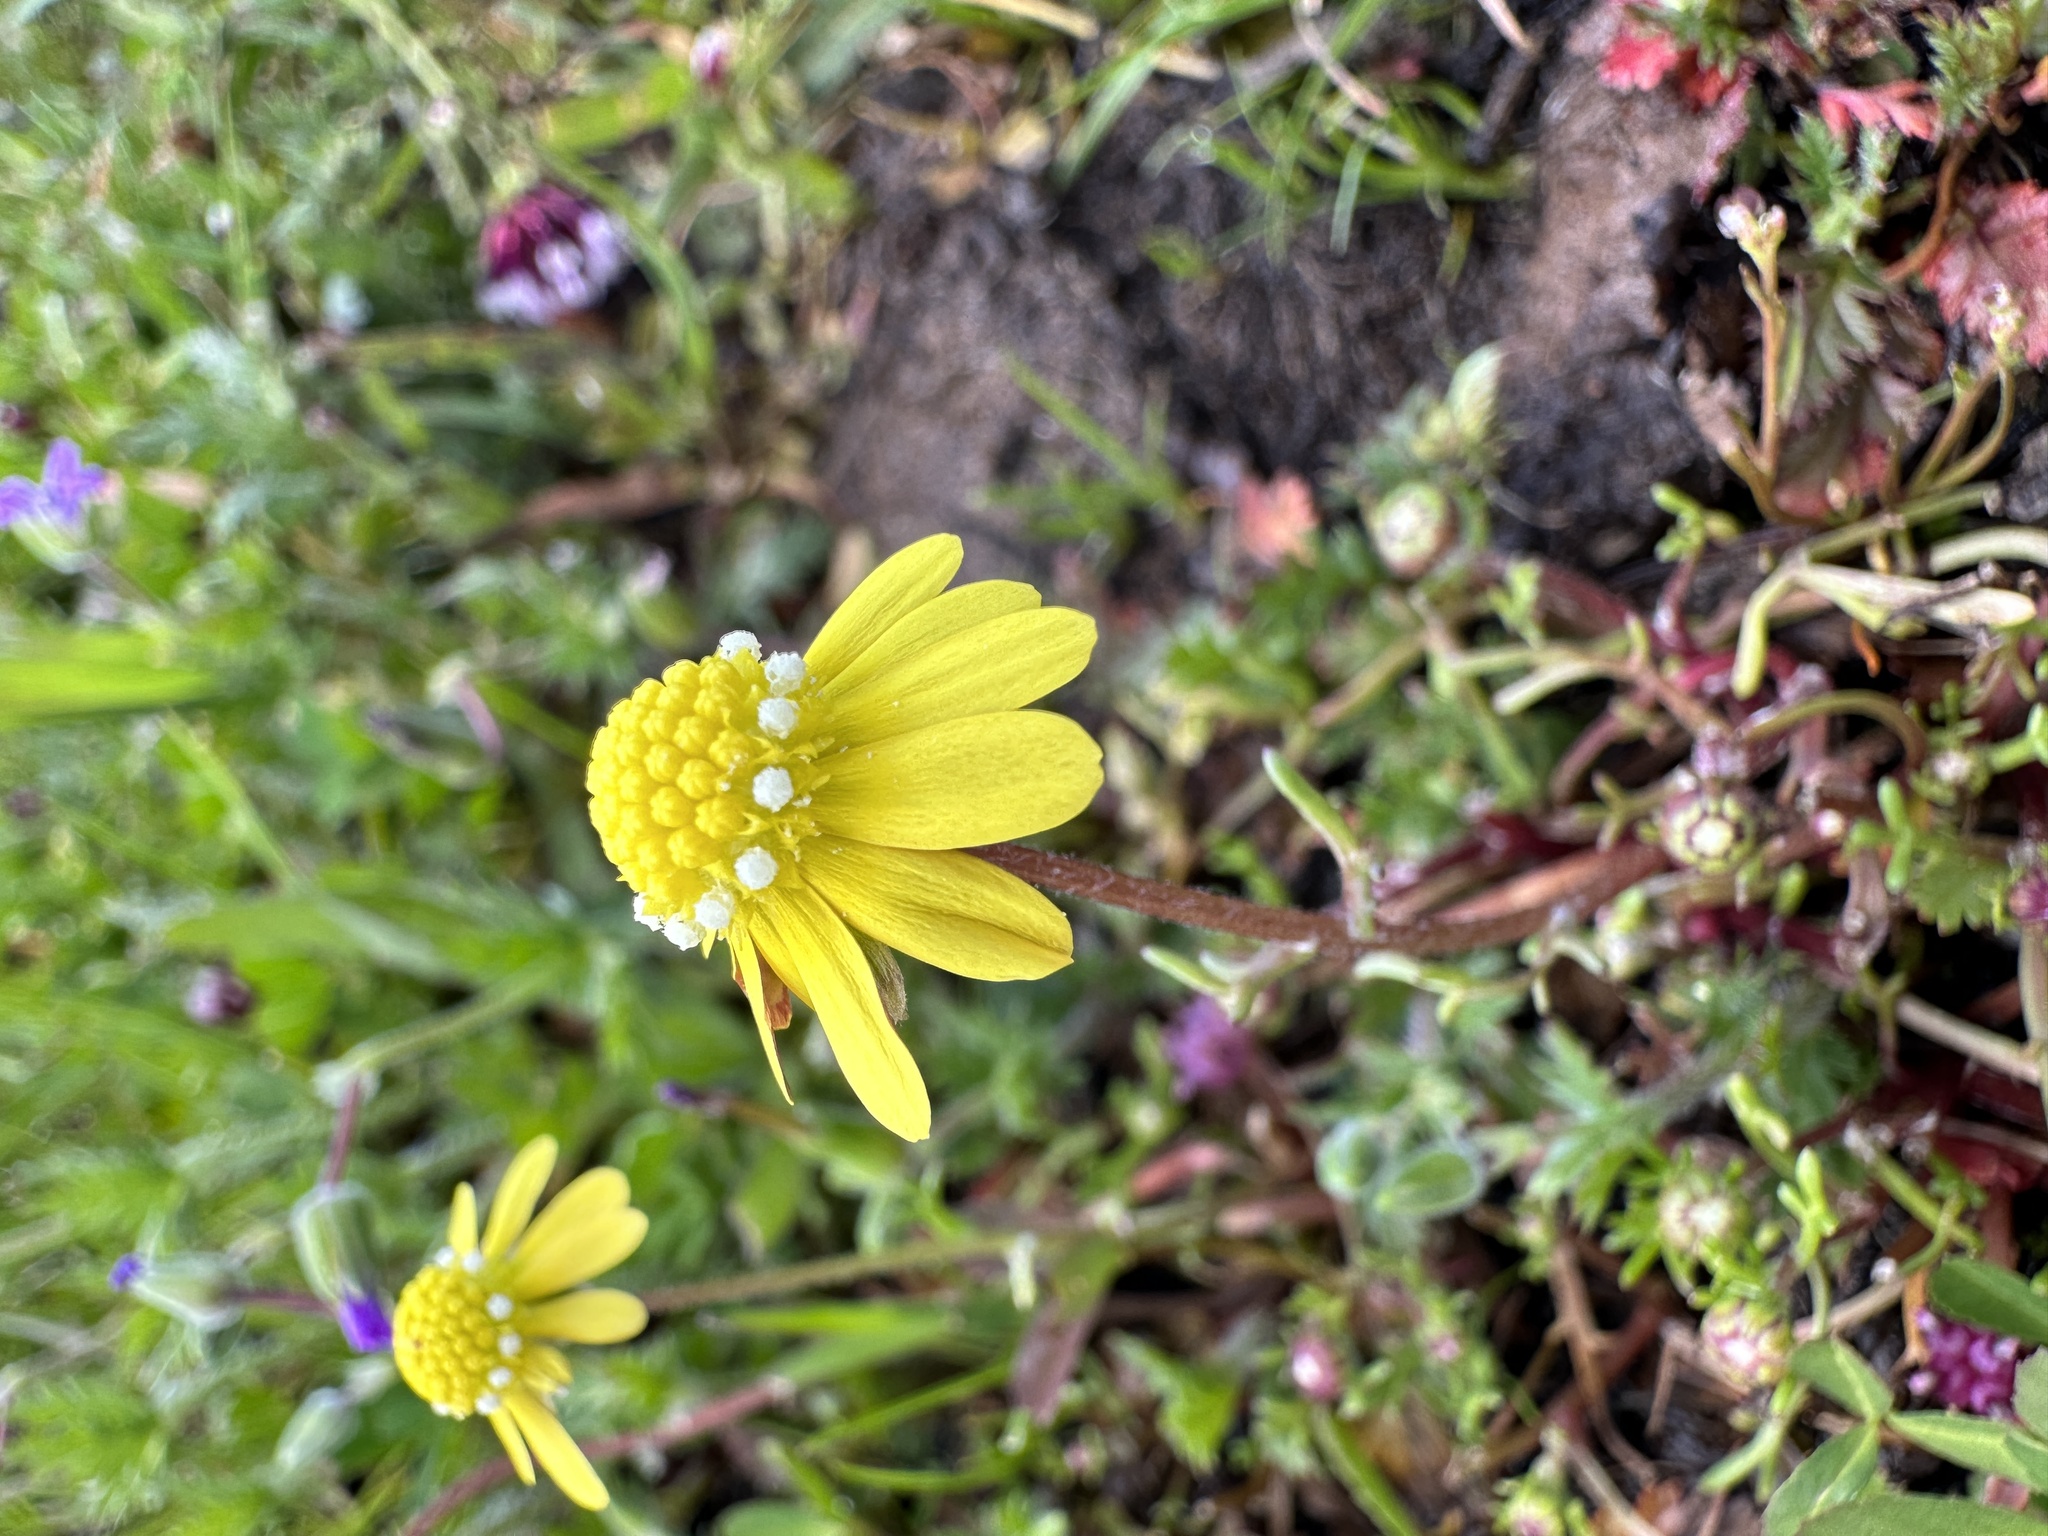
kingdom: Plantae
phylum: Tracheophyta
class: Magnoliopsida
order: Asterales
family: Asteraceae
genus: Blennosperma
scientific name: Blennosperma nanum
